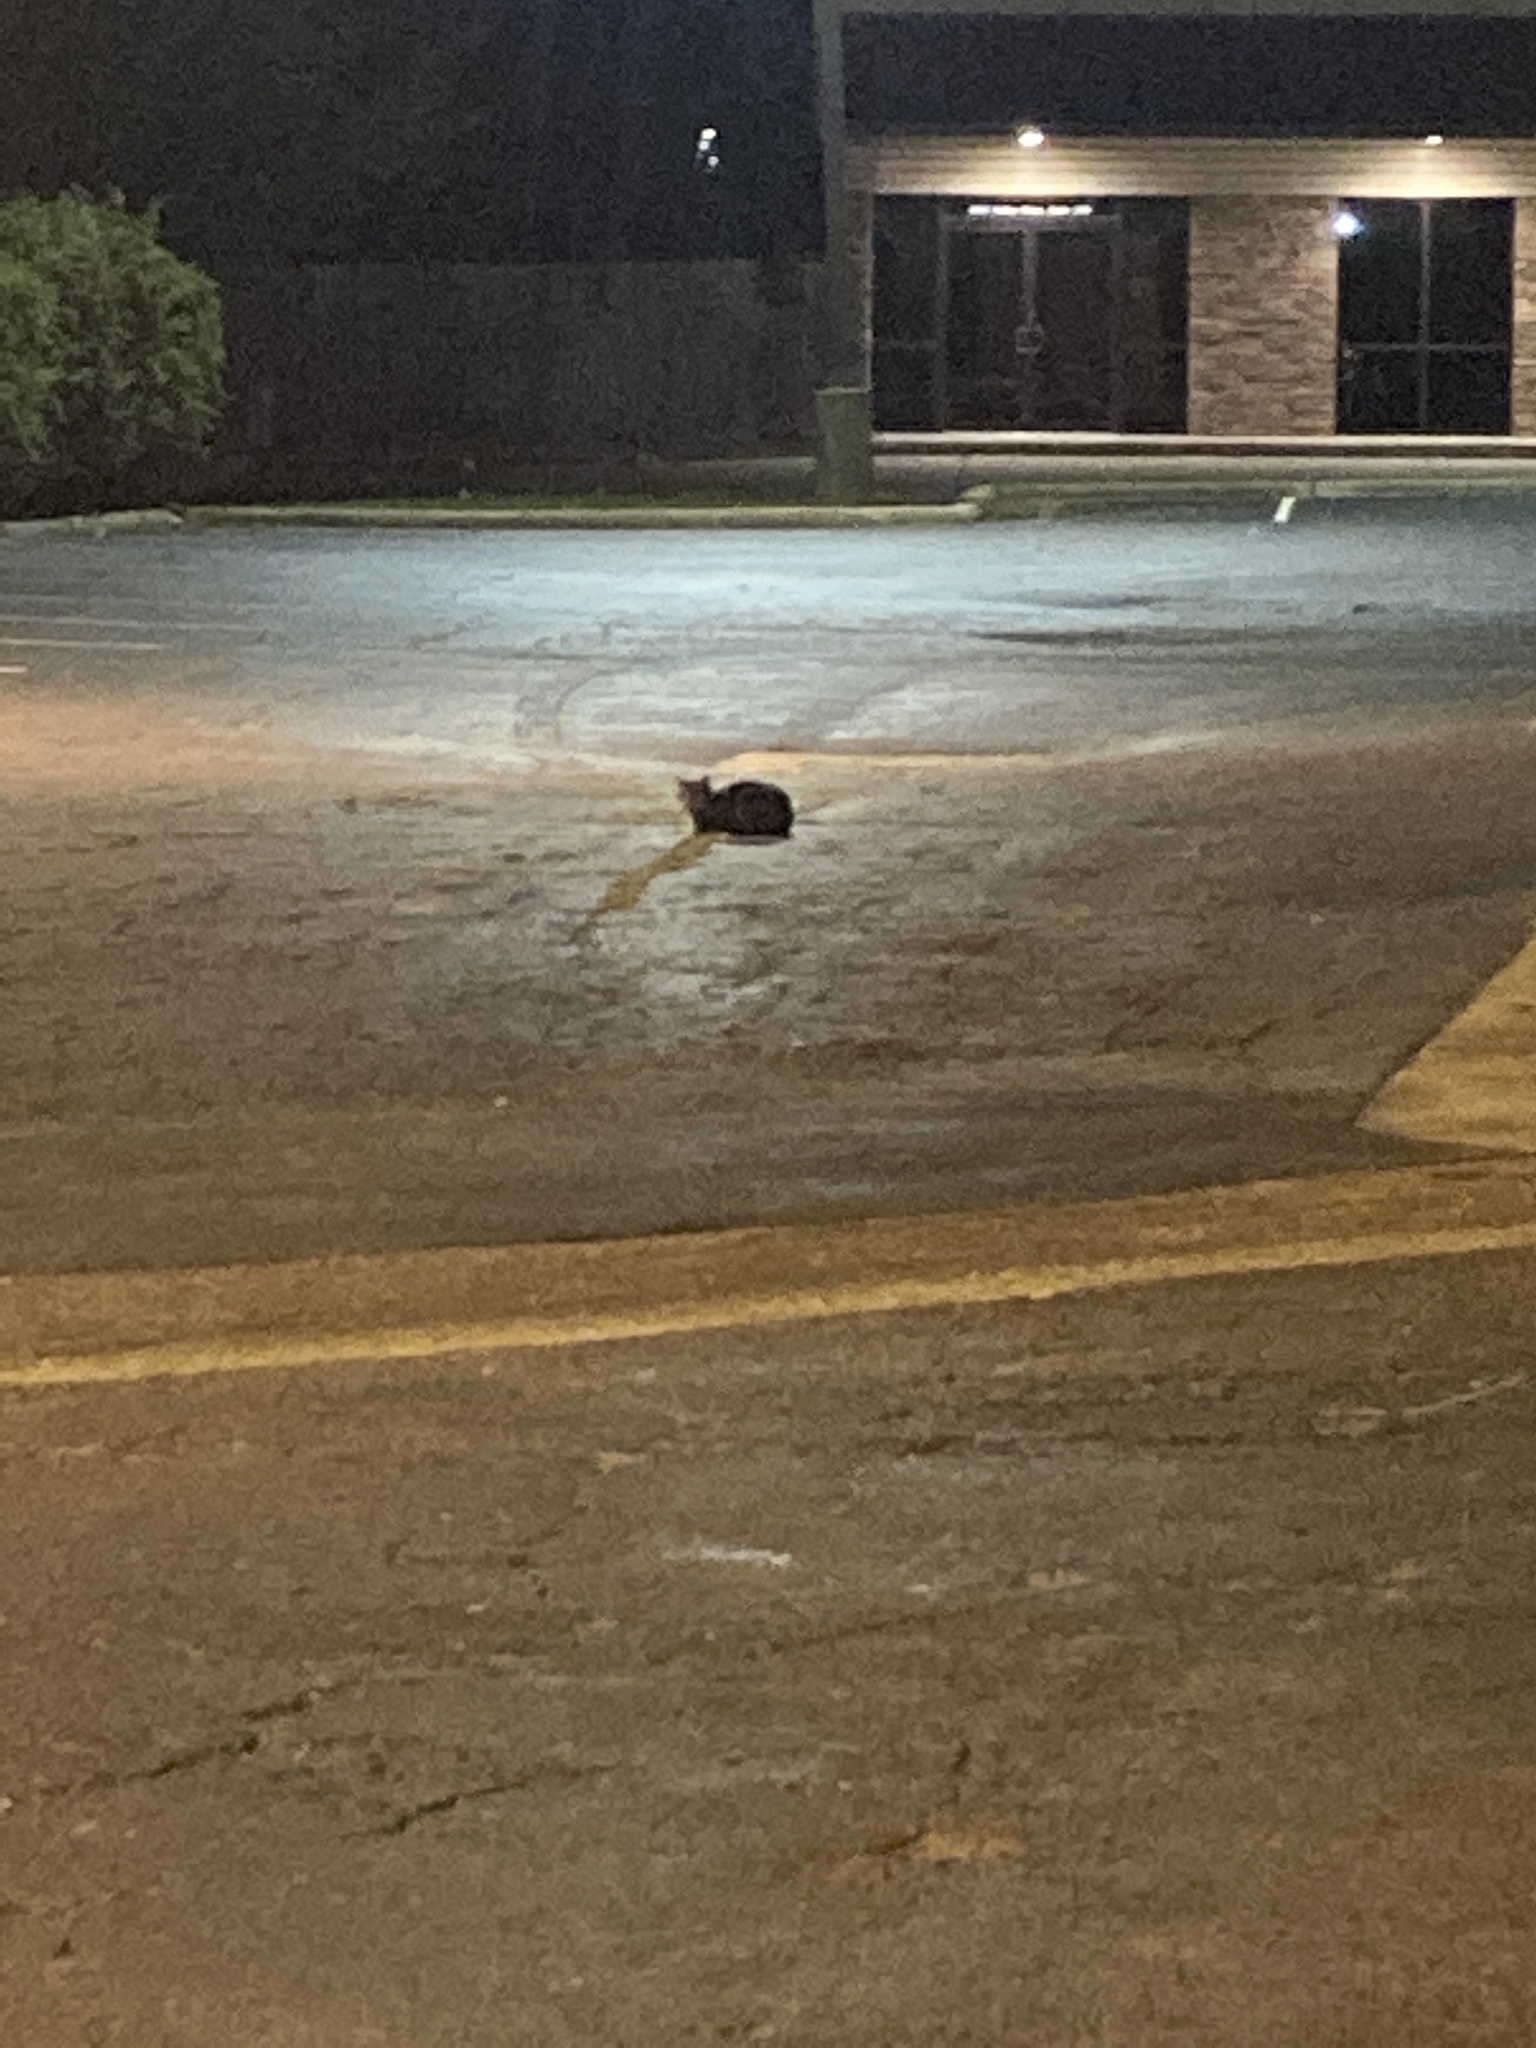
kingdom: Animalia
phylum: Chordata
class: Mammalia
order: Carnivora
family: Felidae
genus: Felis
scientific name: Felis catus
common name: Domestic cat
